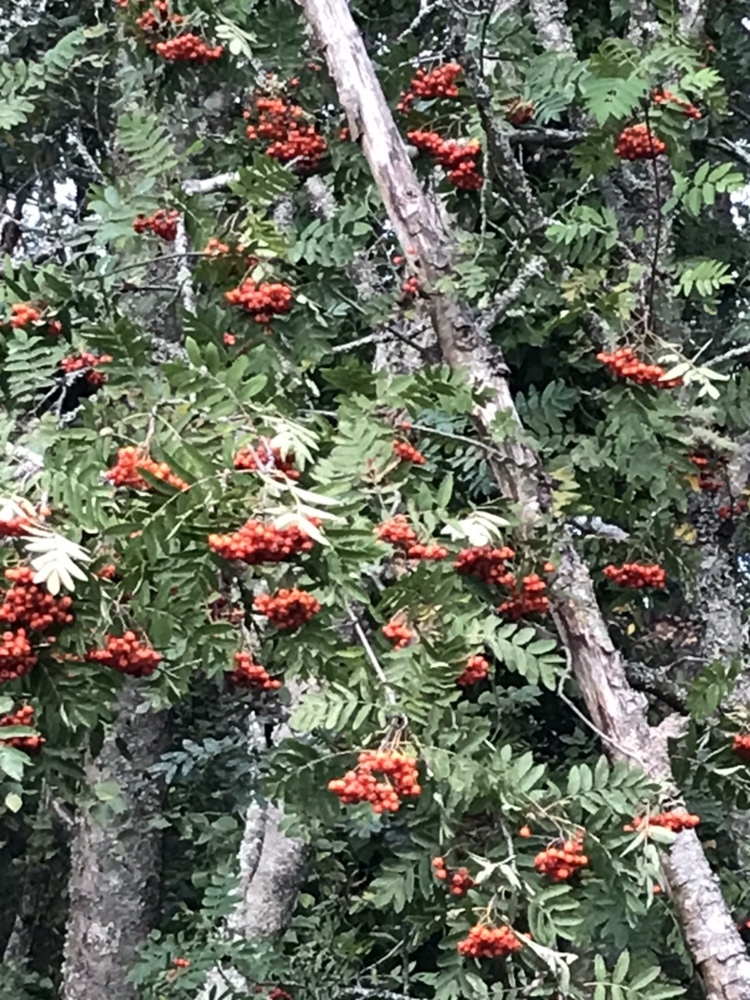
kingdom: Plantae
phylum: Tracheophyta
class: Magnoliopsida
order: Rosales
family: Rosaceae
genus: Sorbus
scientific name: Sorbus aucuparia
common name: Rowan
